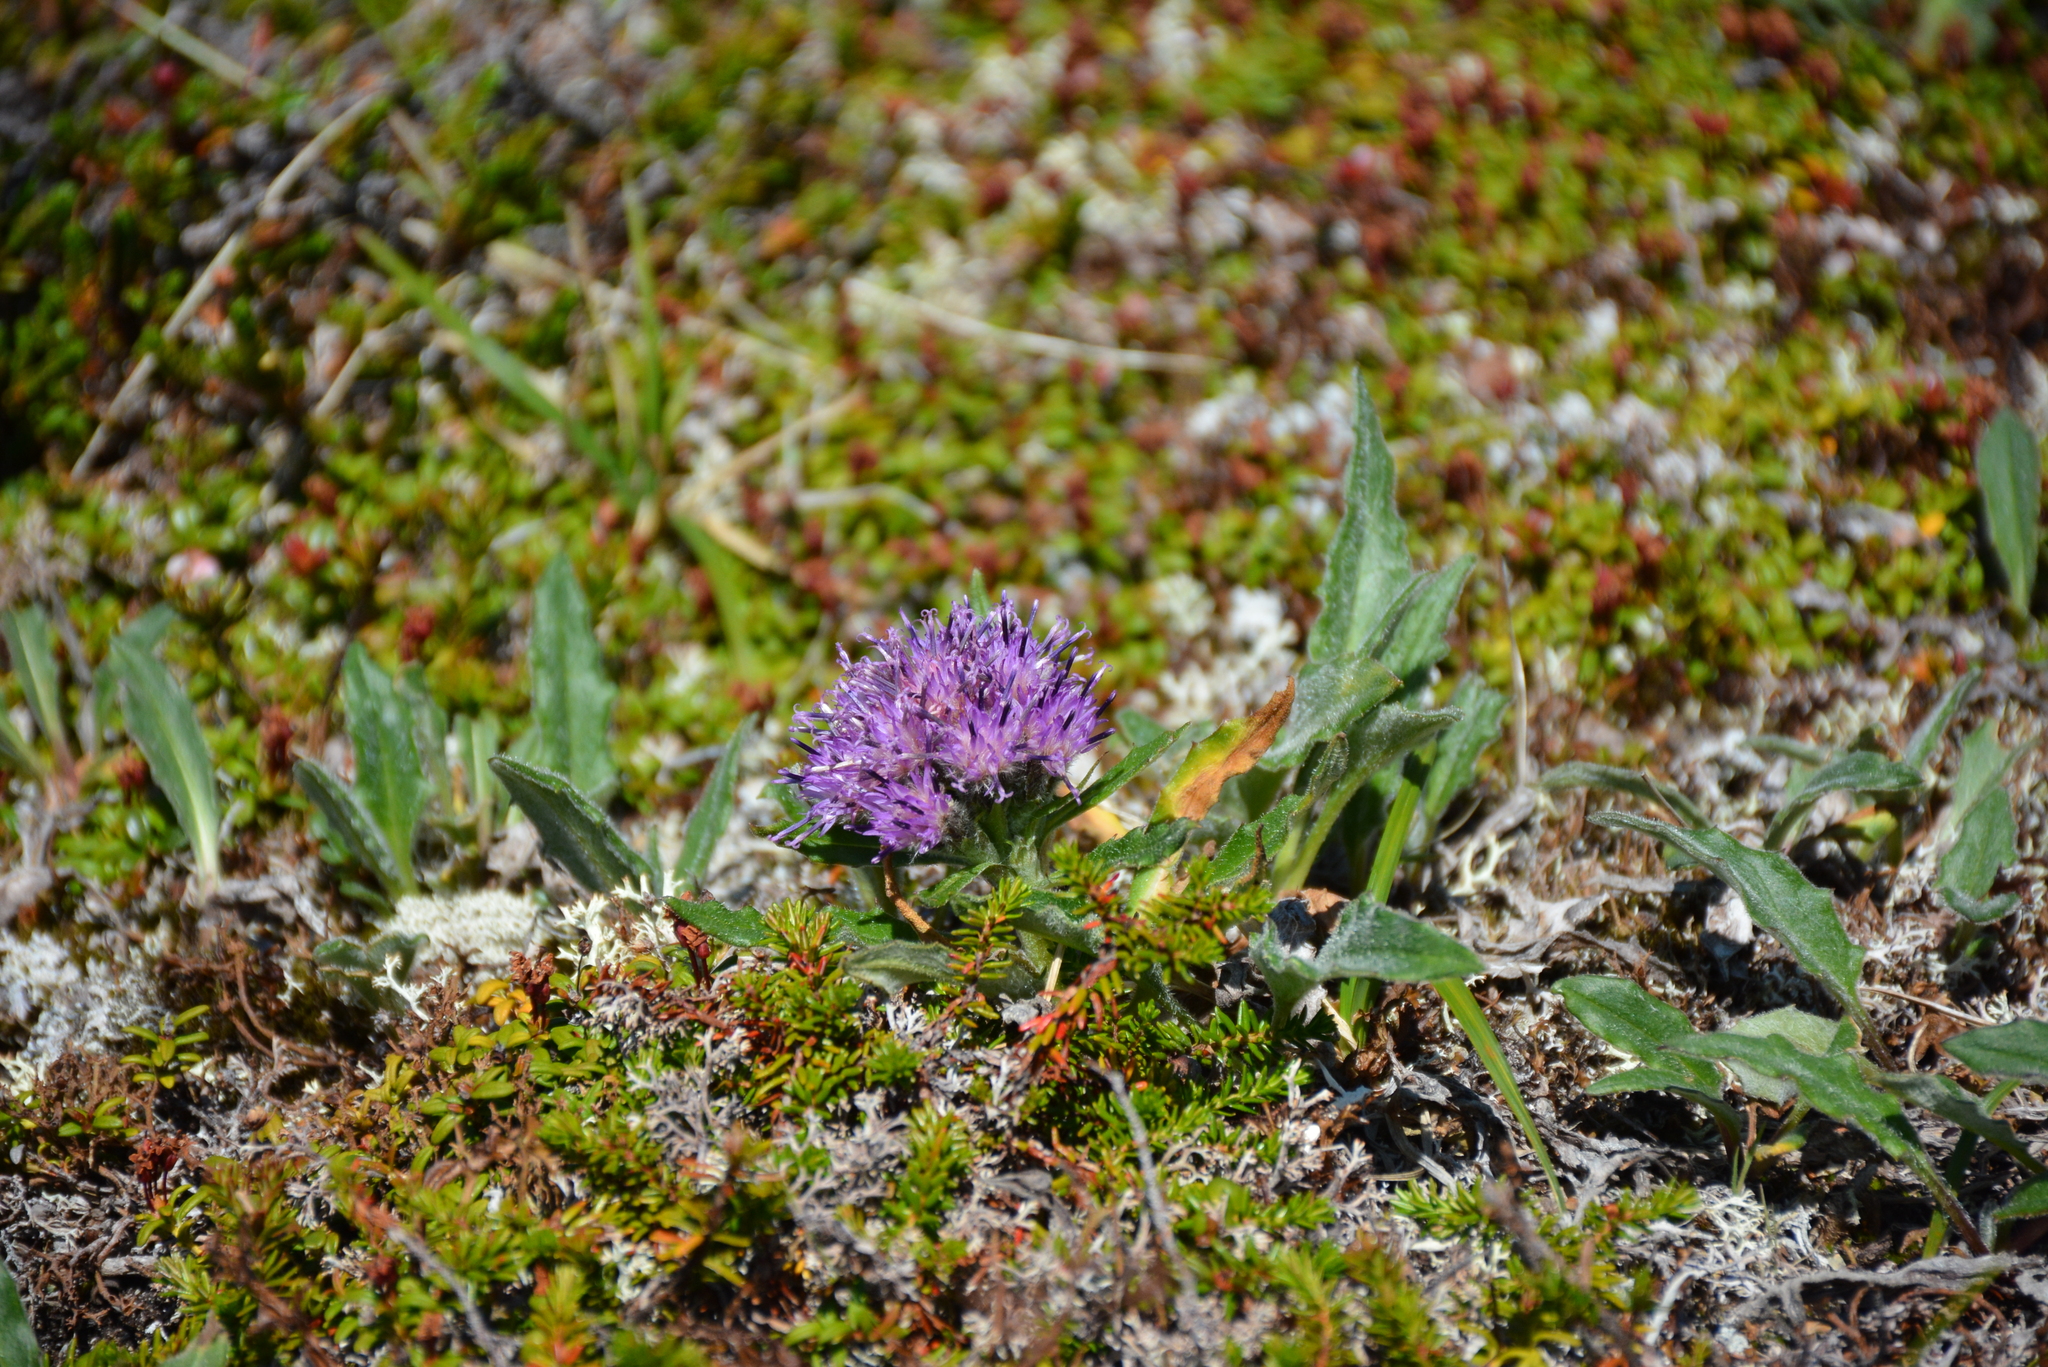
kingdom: Plantae
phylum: Tracheophyta
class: Magnoliopsida
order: Asterales
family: Asteraceae
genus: Saussurea
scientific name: Saussurea tilesii
